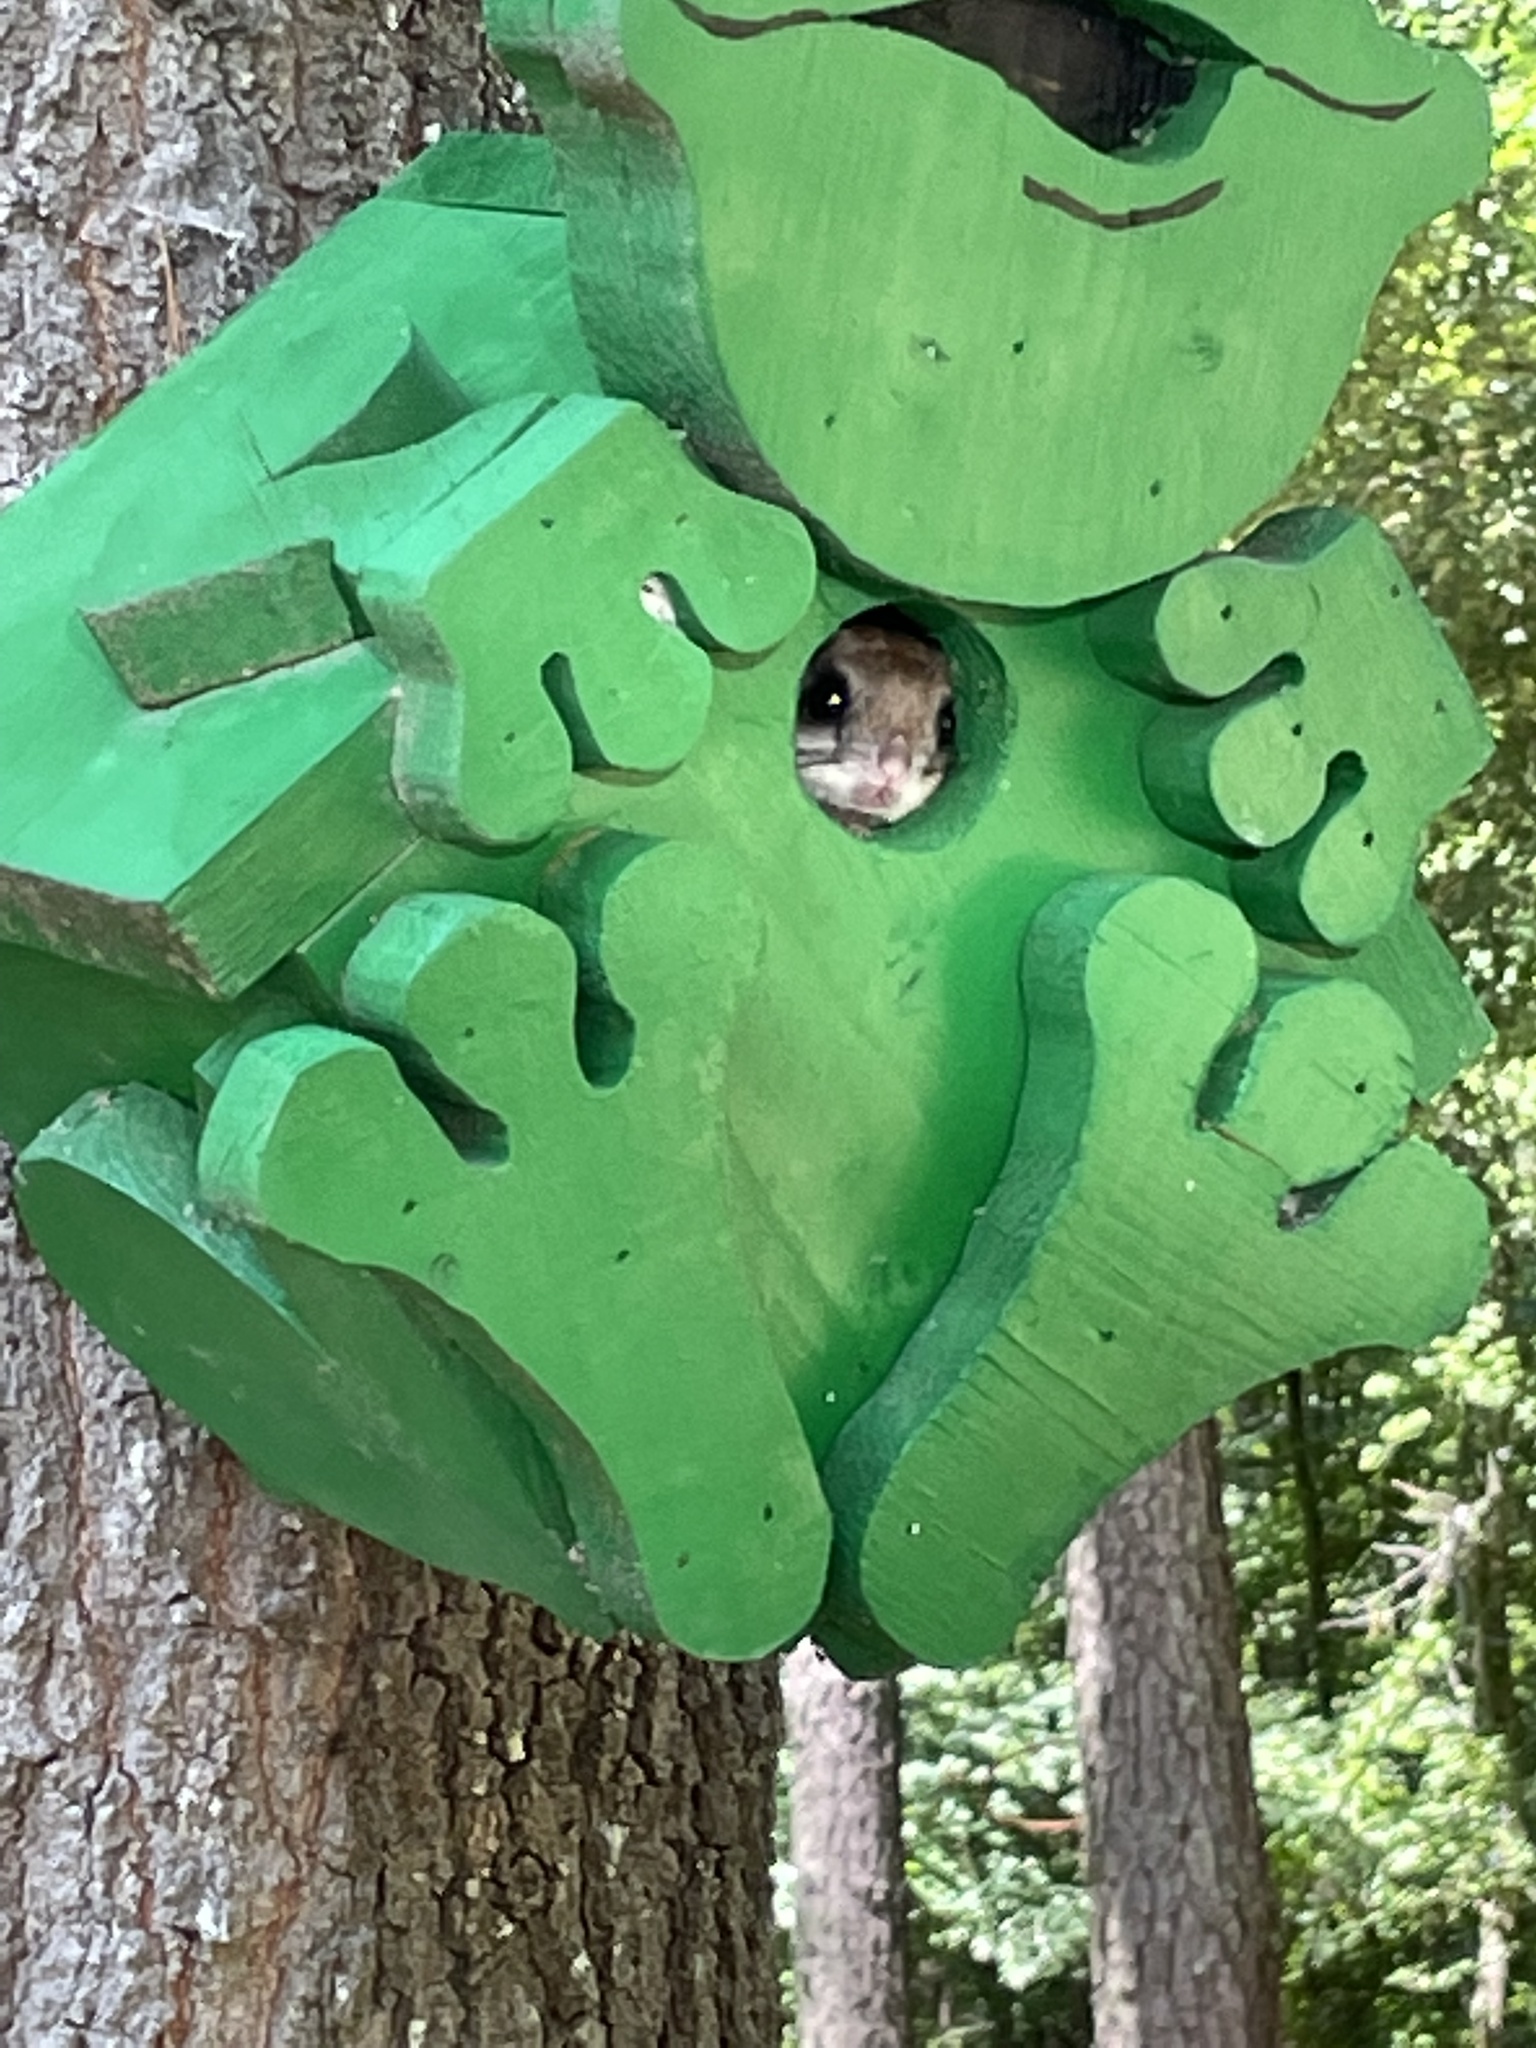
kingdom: Animalia
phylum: Chordata
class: Mammalia
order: Rodentia
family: Sciuridae
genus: Glaucomys
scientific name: Glaucomys volans
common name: Southern flying squirrel
